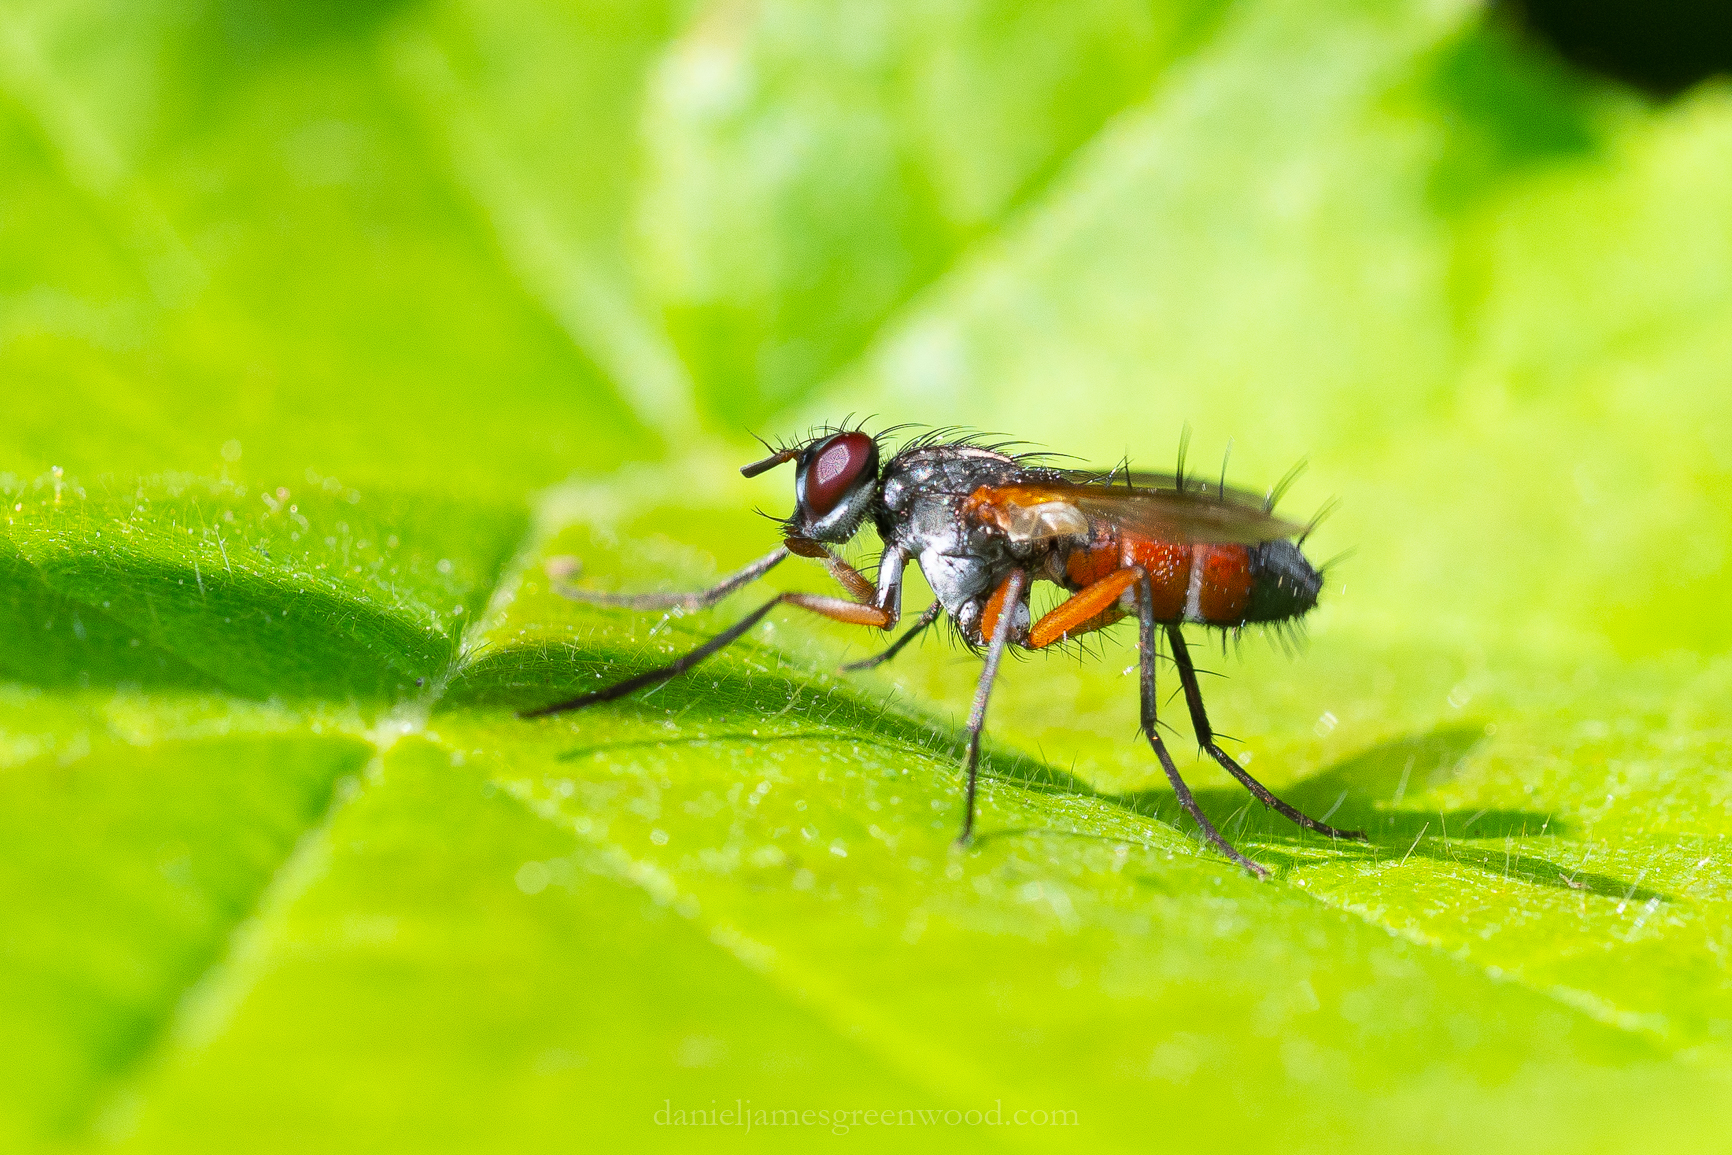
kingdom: Animalia
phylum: Arthropoda
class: Insecta
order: Diptera
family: Tachinidae
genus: Mintho
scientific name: Mintho rufiventris
